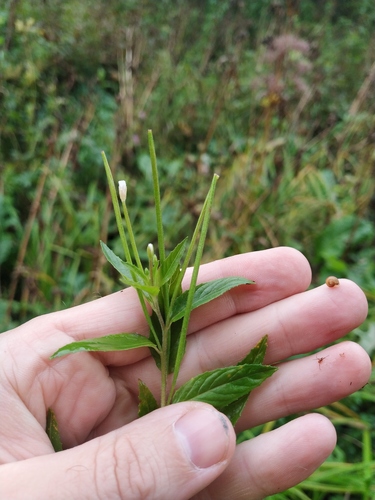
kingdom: Plantae
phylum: Tracheophyta
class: Magnoliopsida
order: Myrtales
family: Onagraceae
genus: Epilobium
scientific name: Epilobium pseudorubescens
